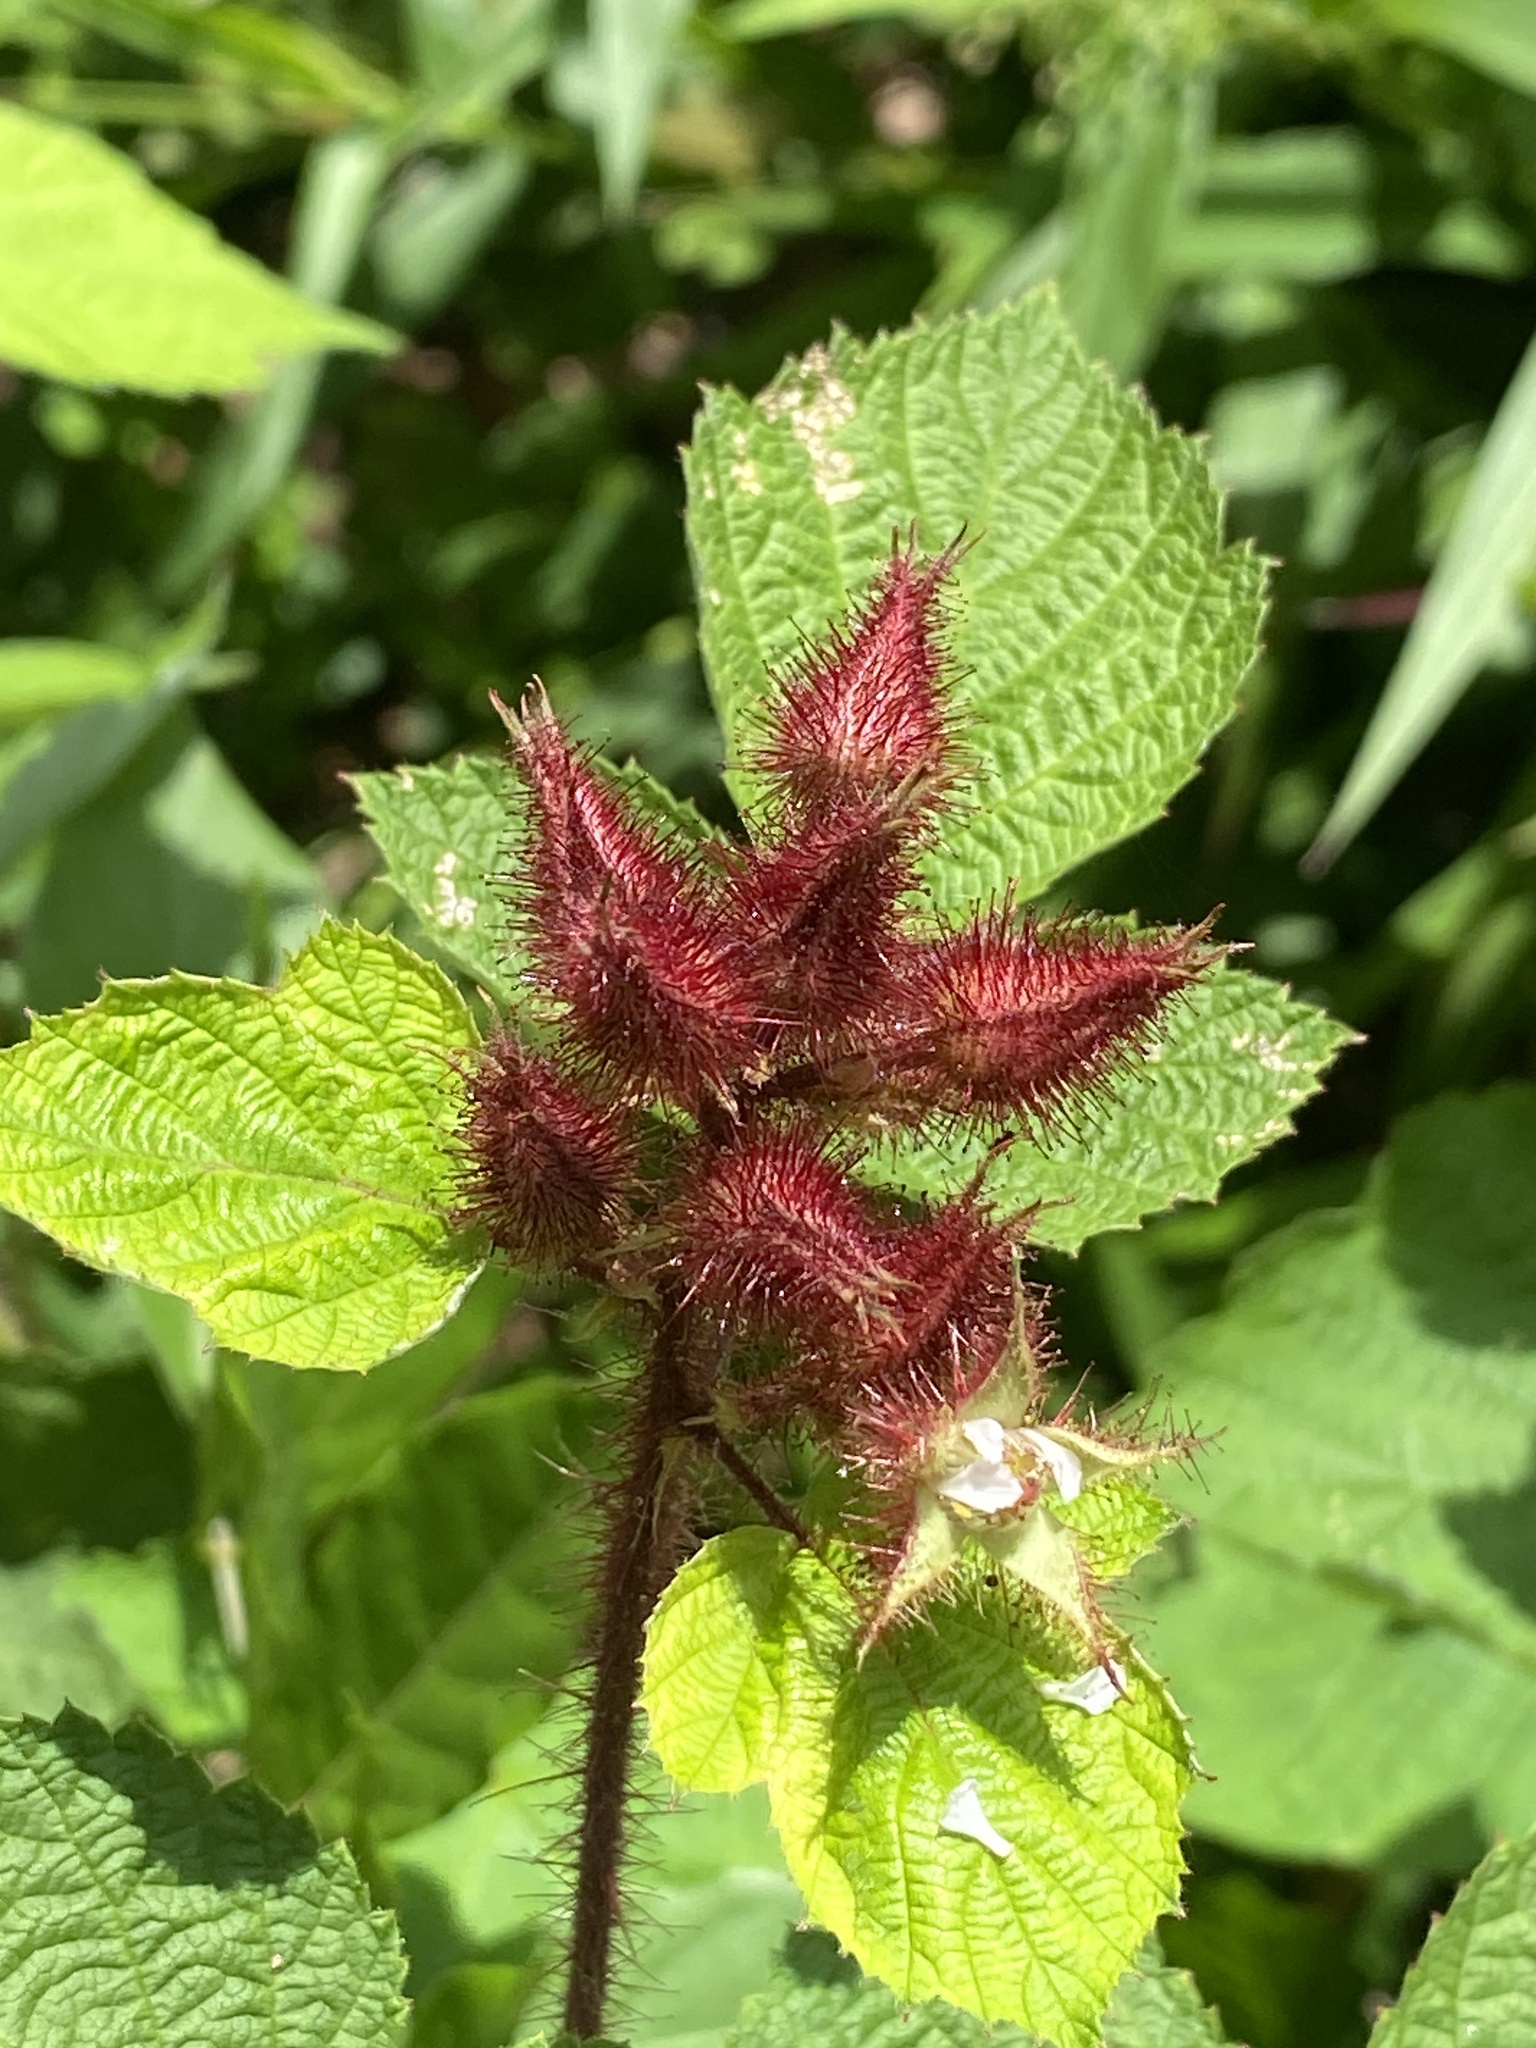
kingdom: Plantae
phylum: Tracheophyta
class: Magnoliopsida
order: Rosales
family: Rosaceae
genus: Rubus
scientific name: Rubus phoenicolasius
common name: Japanese wineberry
